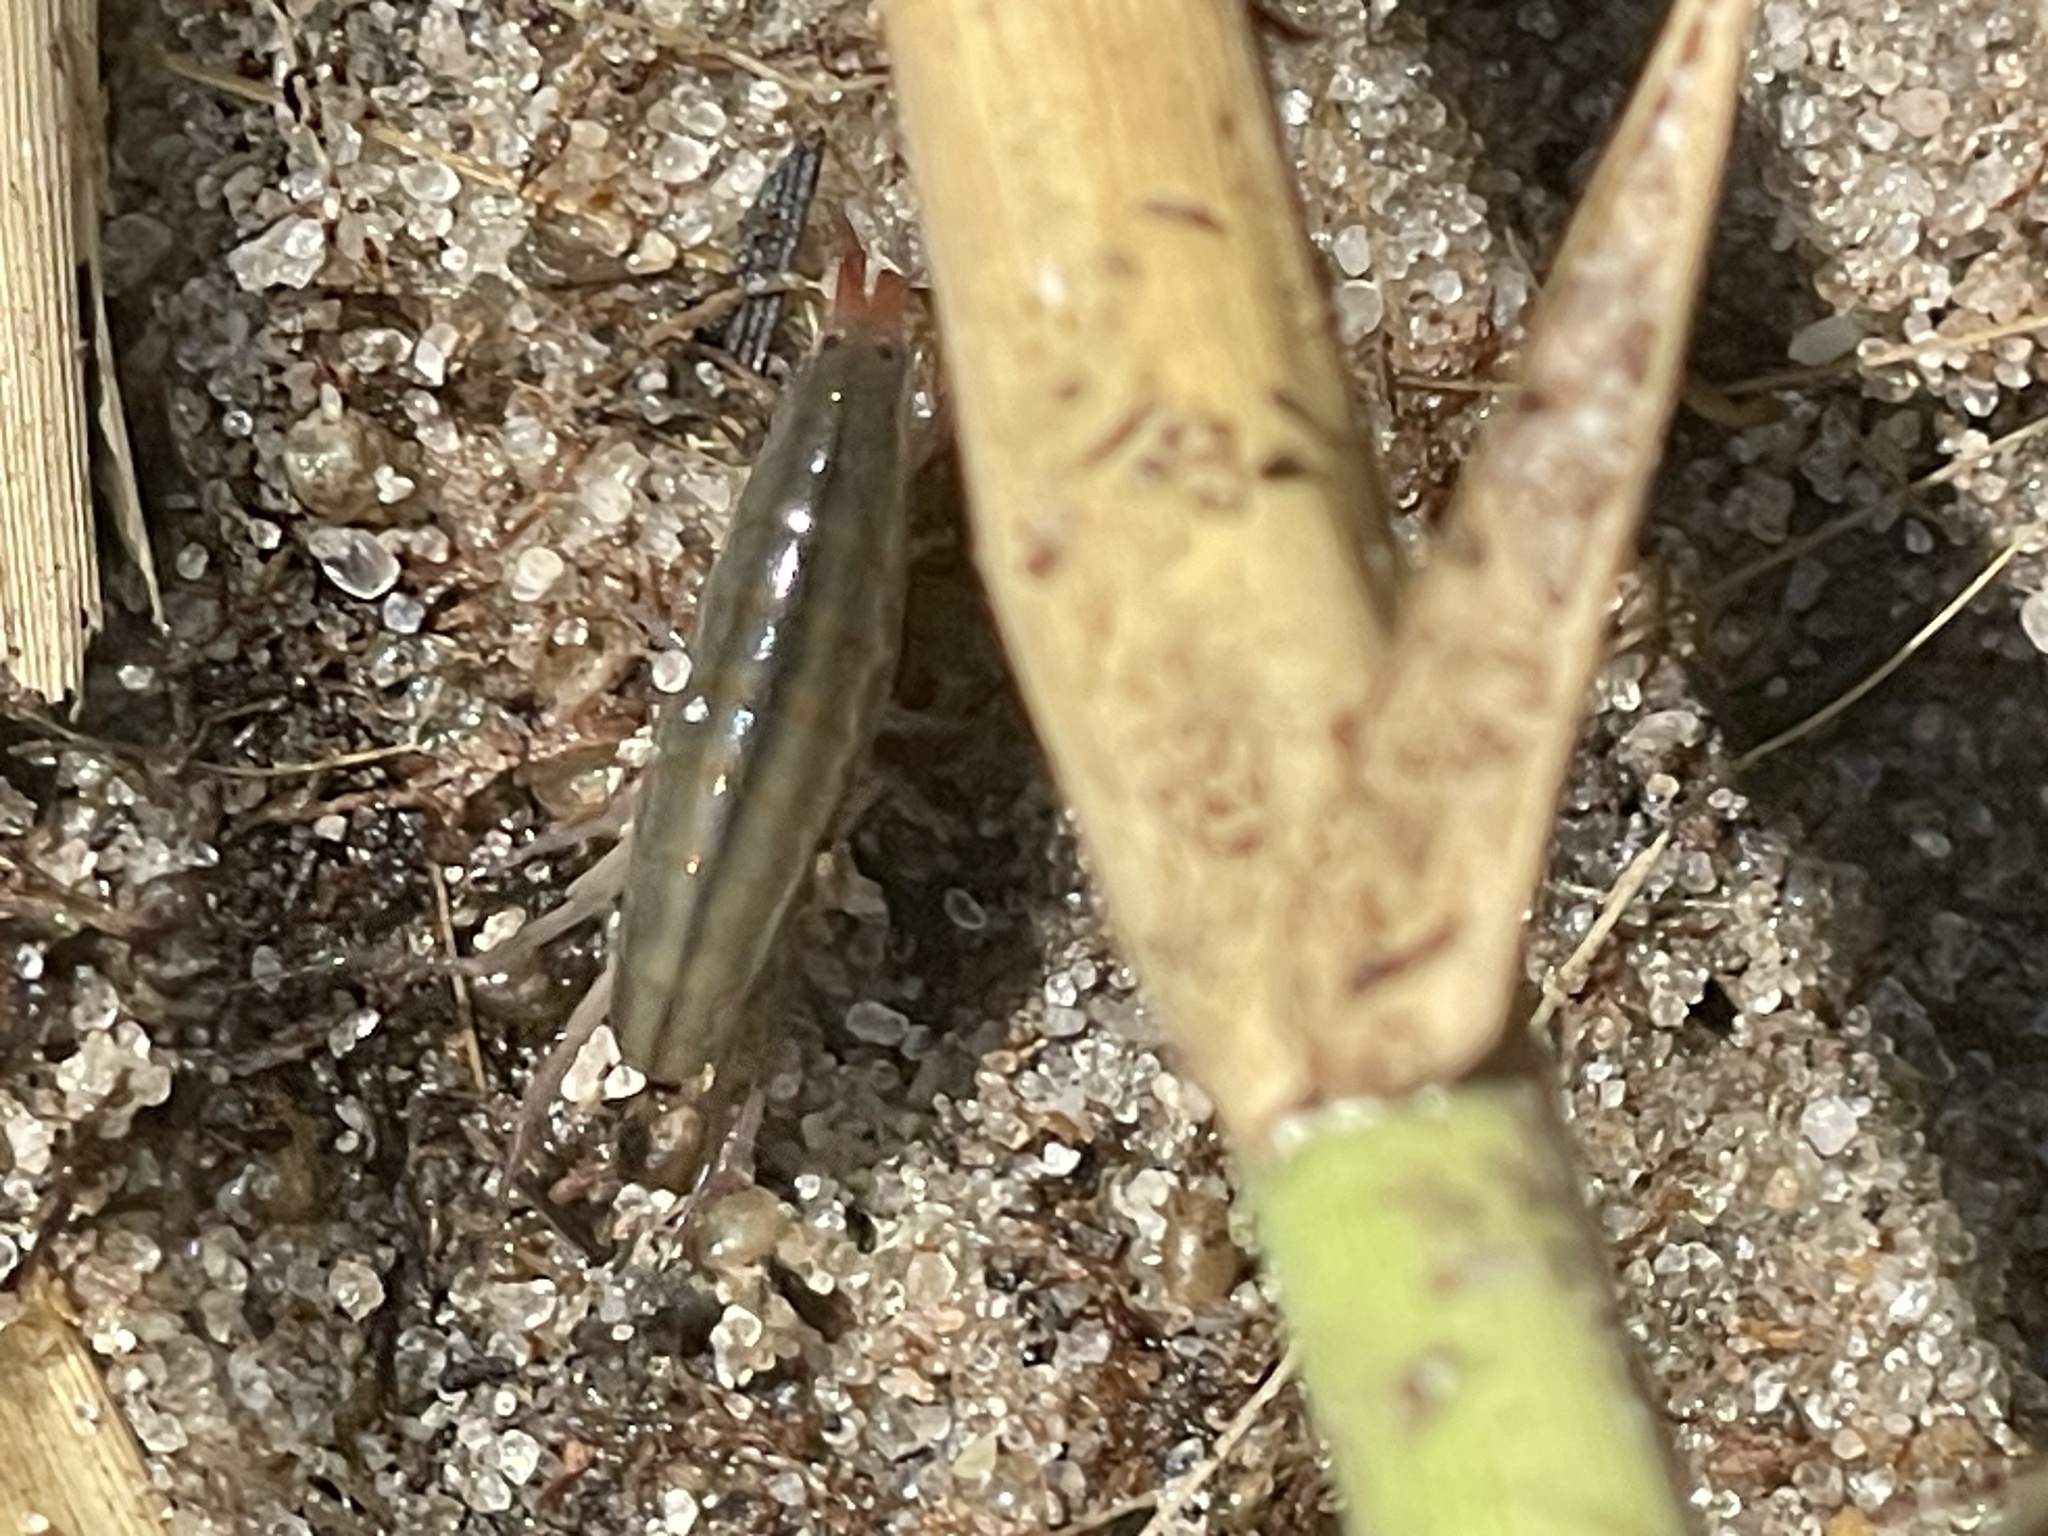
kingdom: Animalia
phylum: Arthropoda
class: Malacostraca
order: Amphipoda
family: Talitridae
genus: Speziorchestia
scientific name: Speziorchestia grillus
